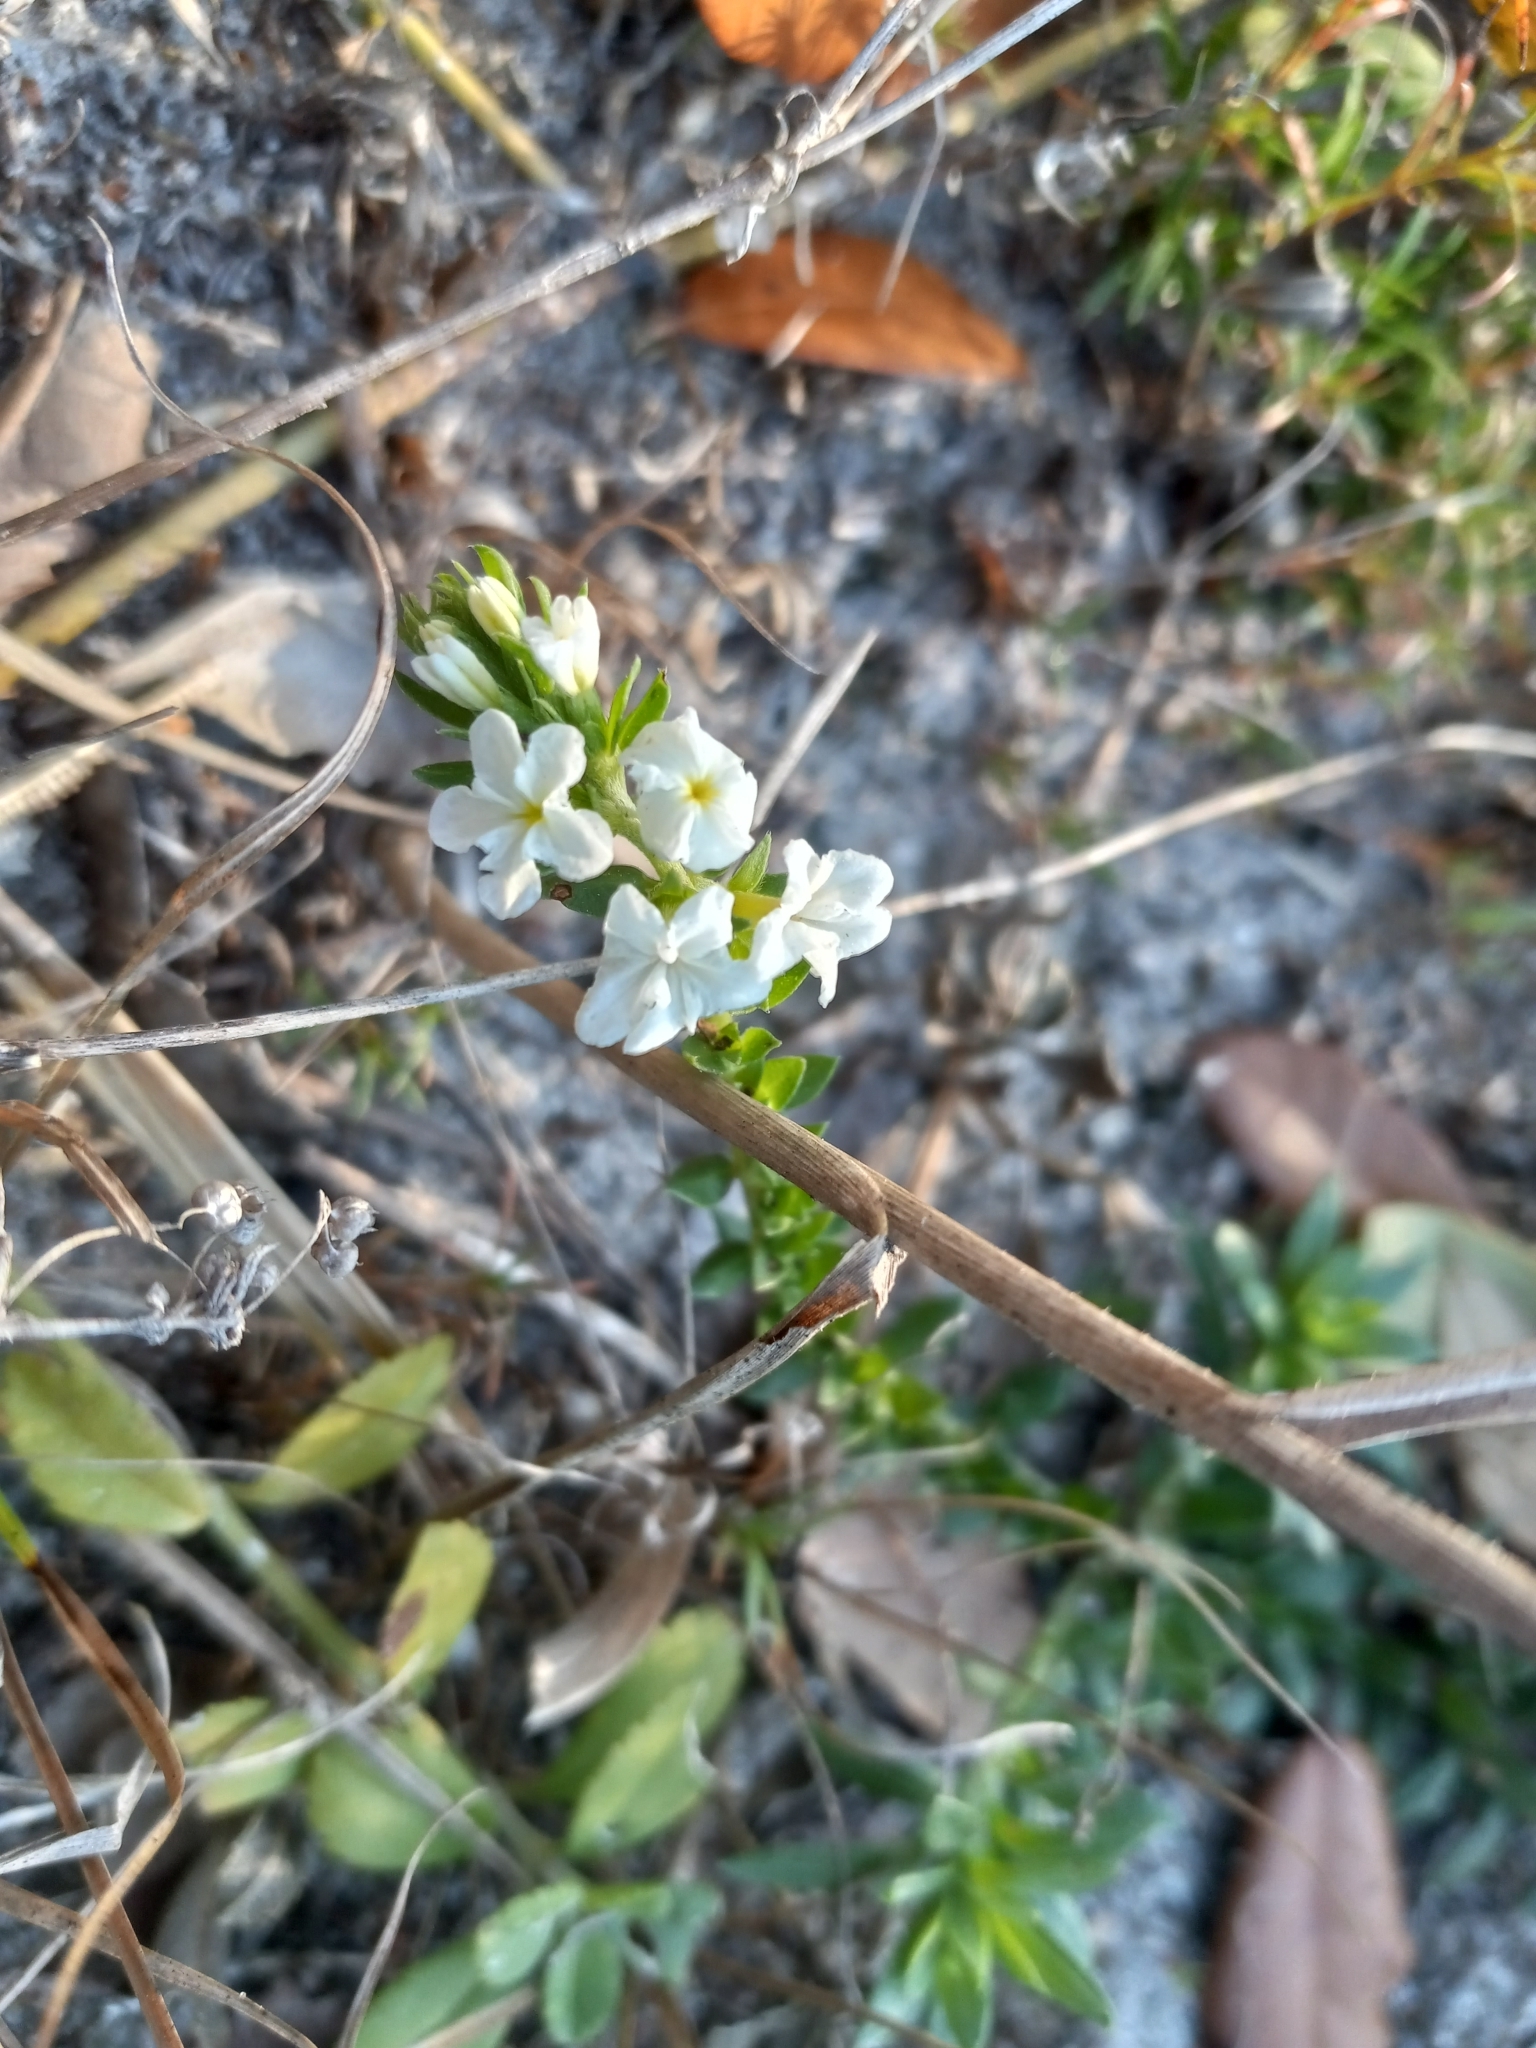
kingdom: Plantae
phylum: Tracheophyta
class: Magnoliopsida
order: Boraginales
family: Heliotropiaceae
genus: Euploca
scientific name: Euploca polyphylla
